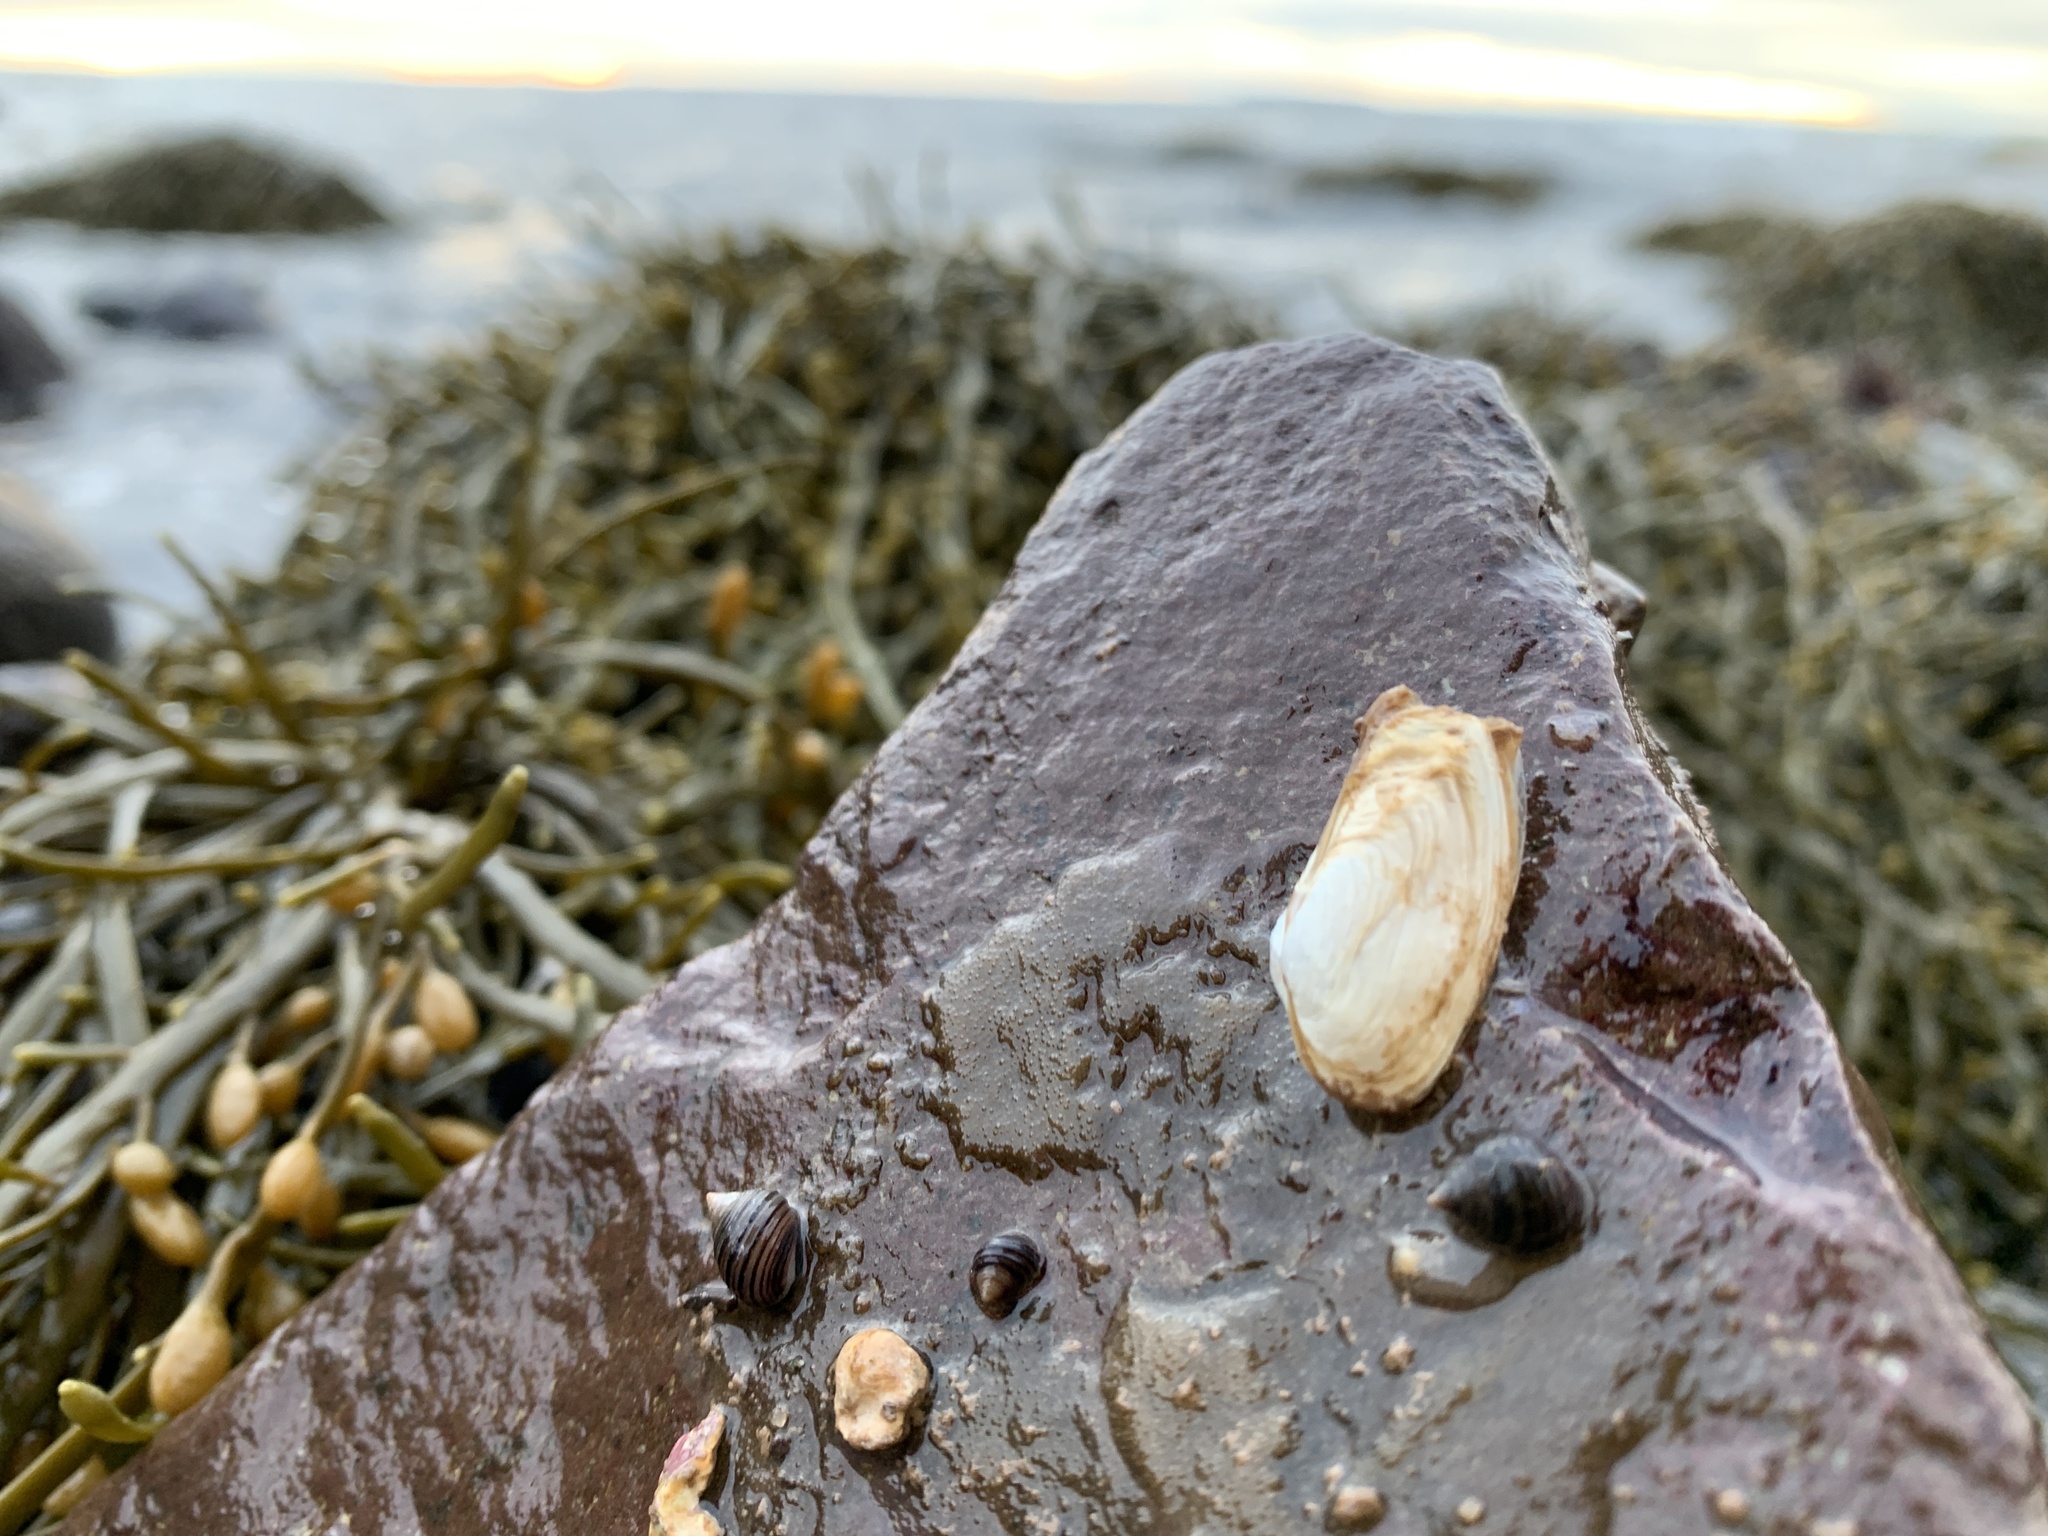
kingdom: Animalia
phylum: Mollusca
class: Bivalvia
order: Adapedonta
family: Hiatellidae
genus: Hiatella
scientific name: Hiatella arctica
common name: Arctic hiatella
